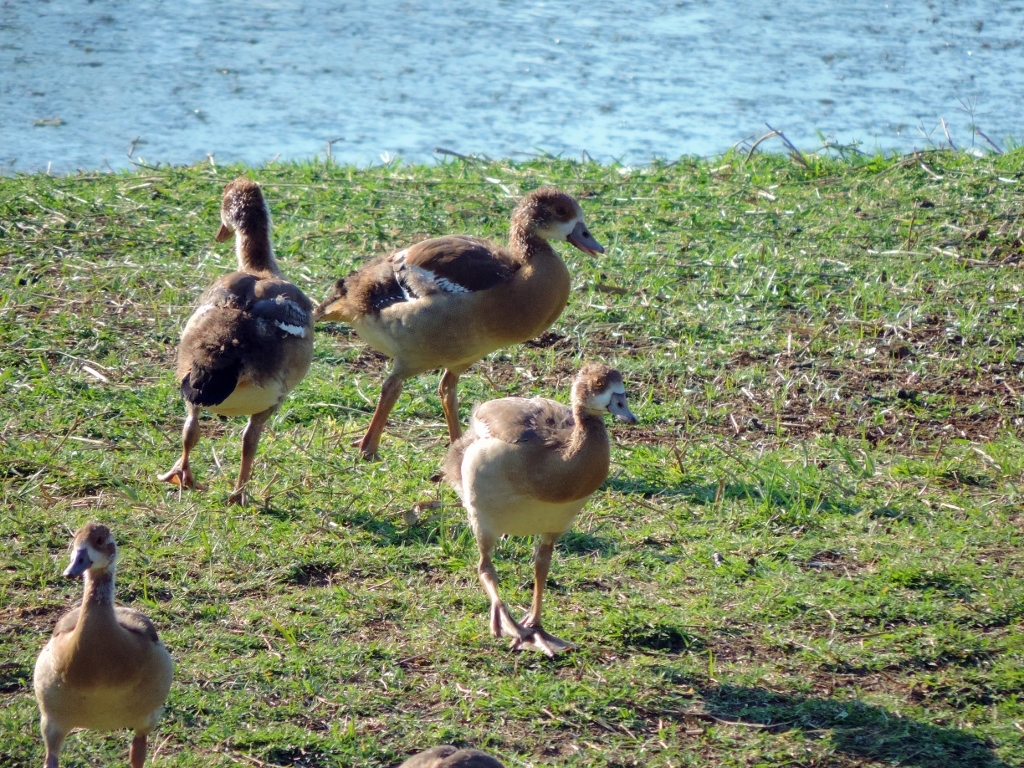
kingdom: Animalia
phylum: Chordata
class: Aves
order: Anseriformes
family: Anatidae
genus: Alopochen
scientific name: Alopochen aegyptiaca
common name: Egyptian goose
